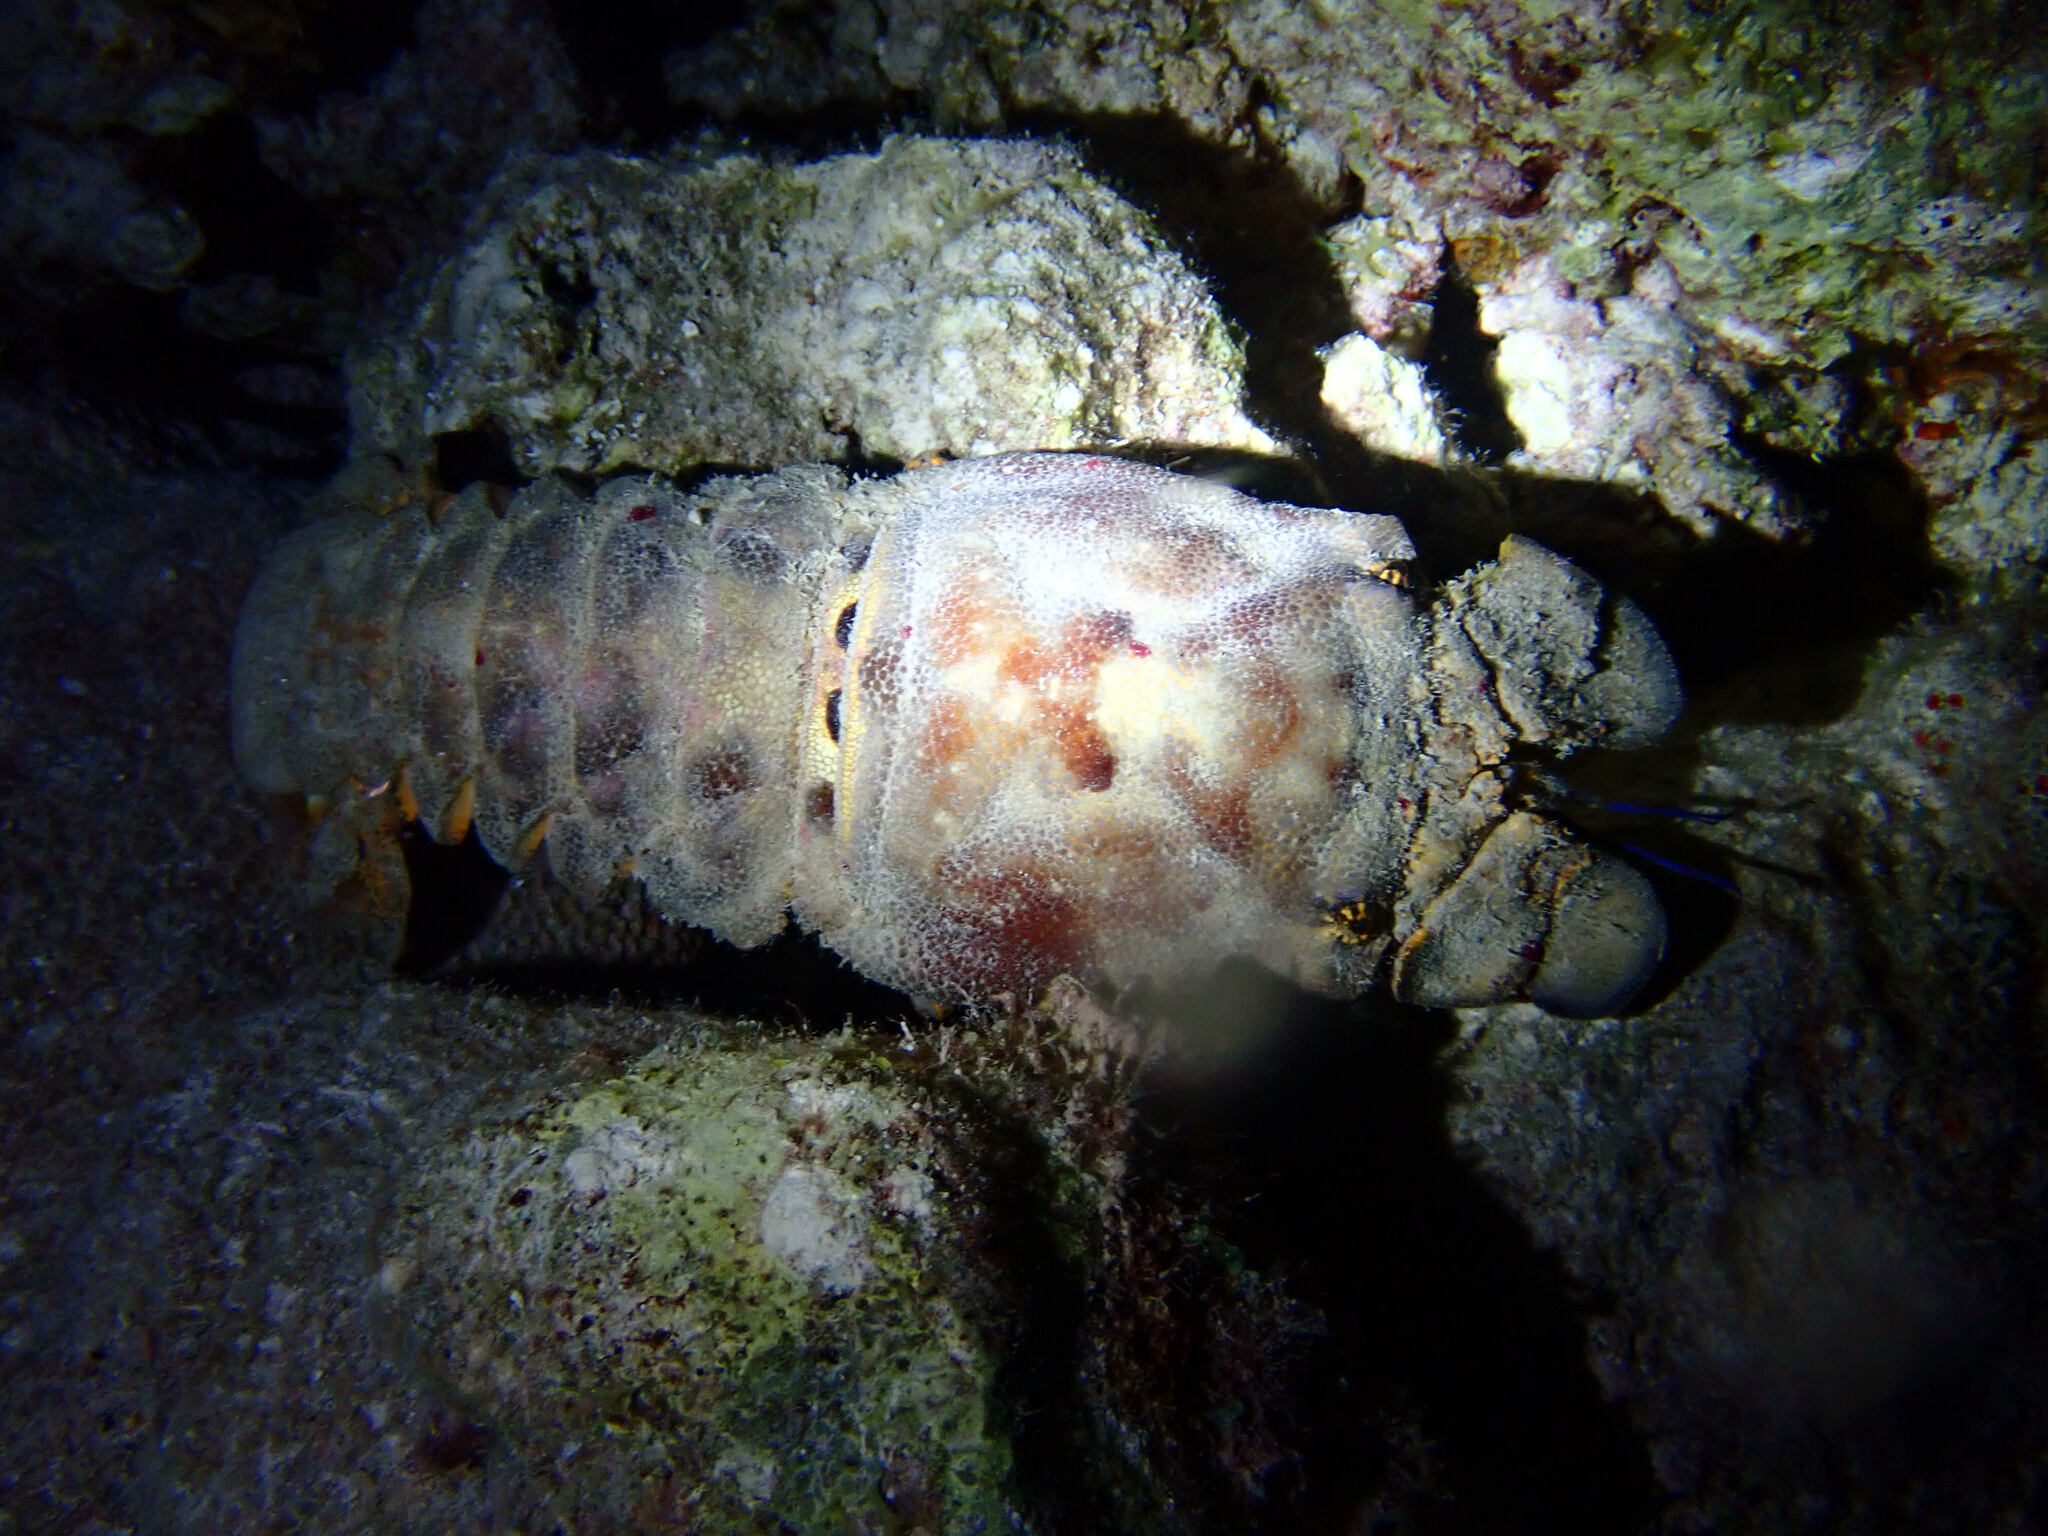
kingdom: Animalia
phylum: Arthropoda
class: Malacostraca
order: Decapoda
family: Scyllaridae
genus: Scyllarides
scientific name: Scyllarides aequinoctialis
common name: Spanish slipper lobster
